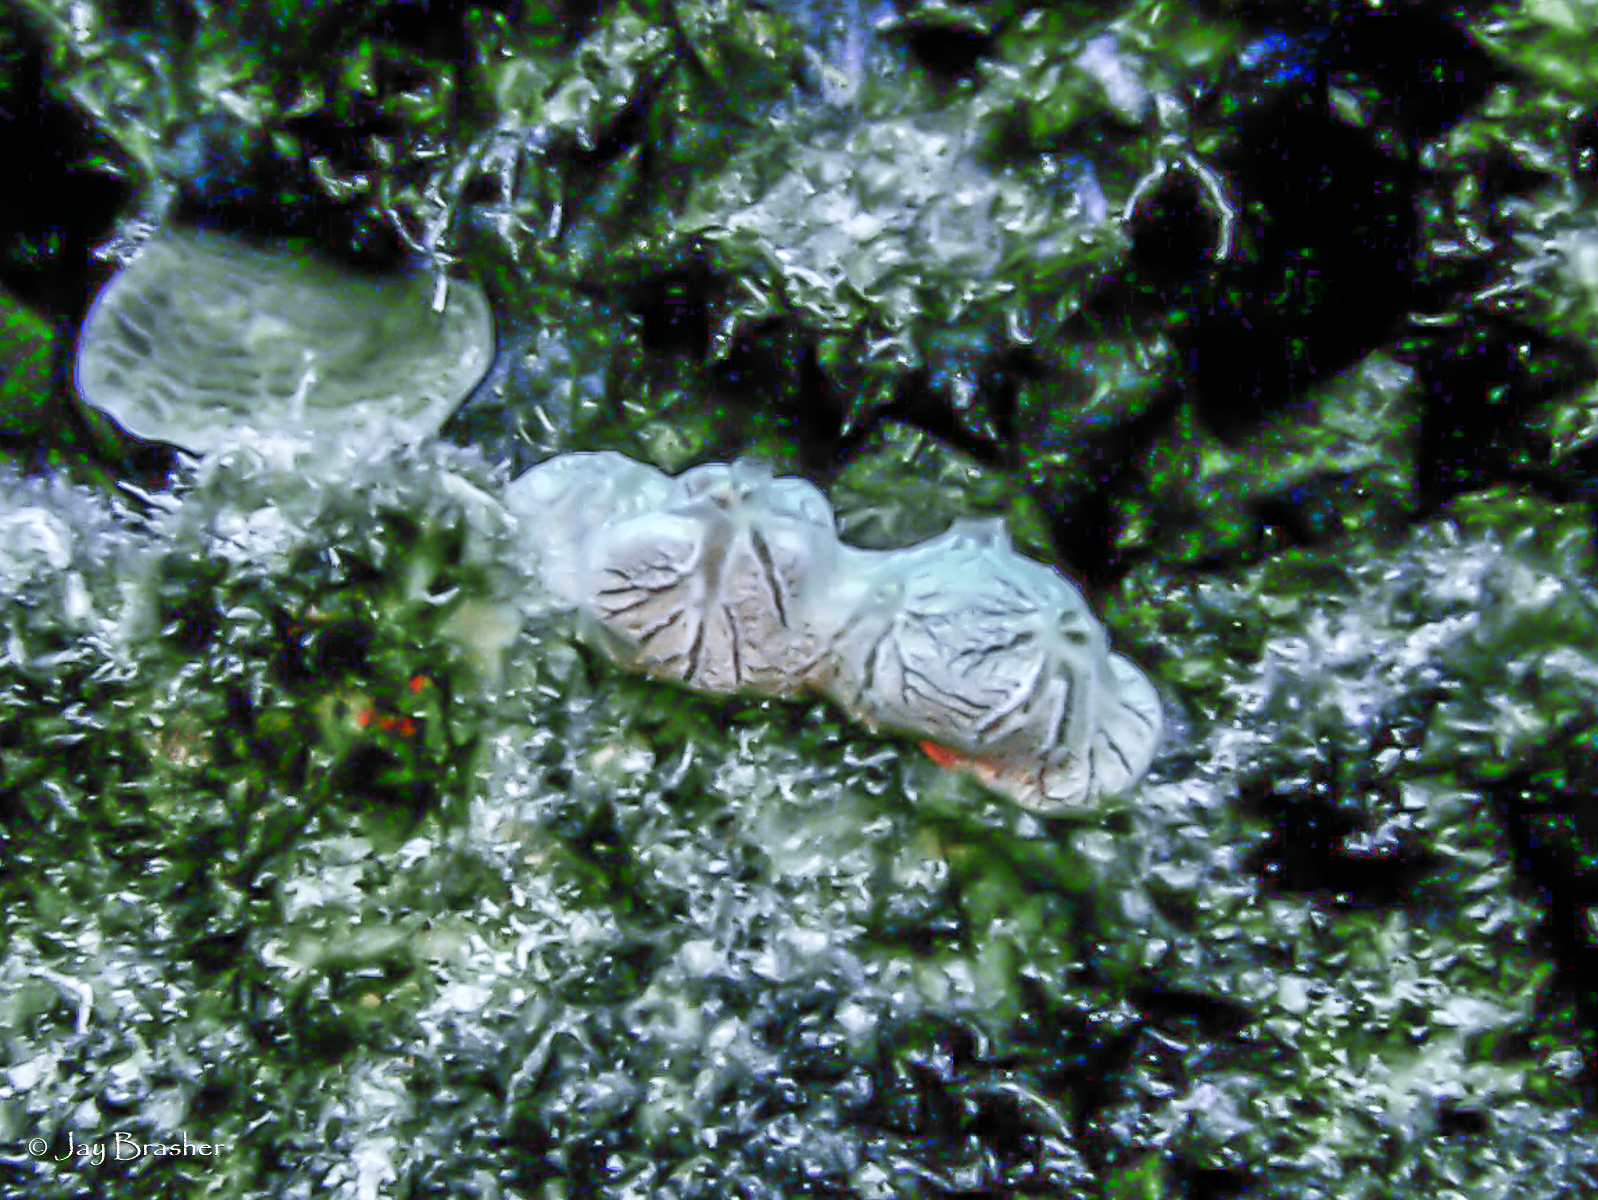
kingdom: Animalia
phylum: Porifera
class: Demospongiae
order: Poecilosclerida
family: Microcionidae
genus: Clathria
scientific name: Clathria curacaoensis
